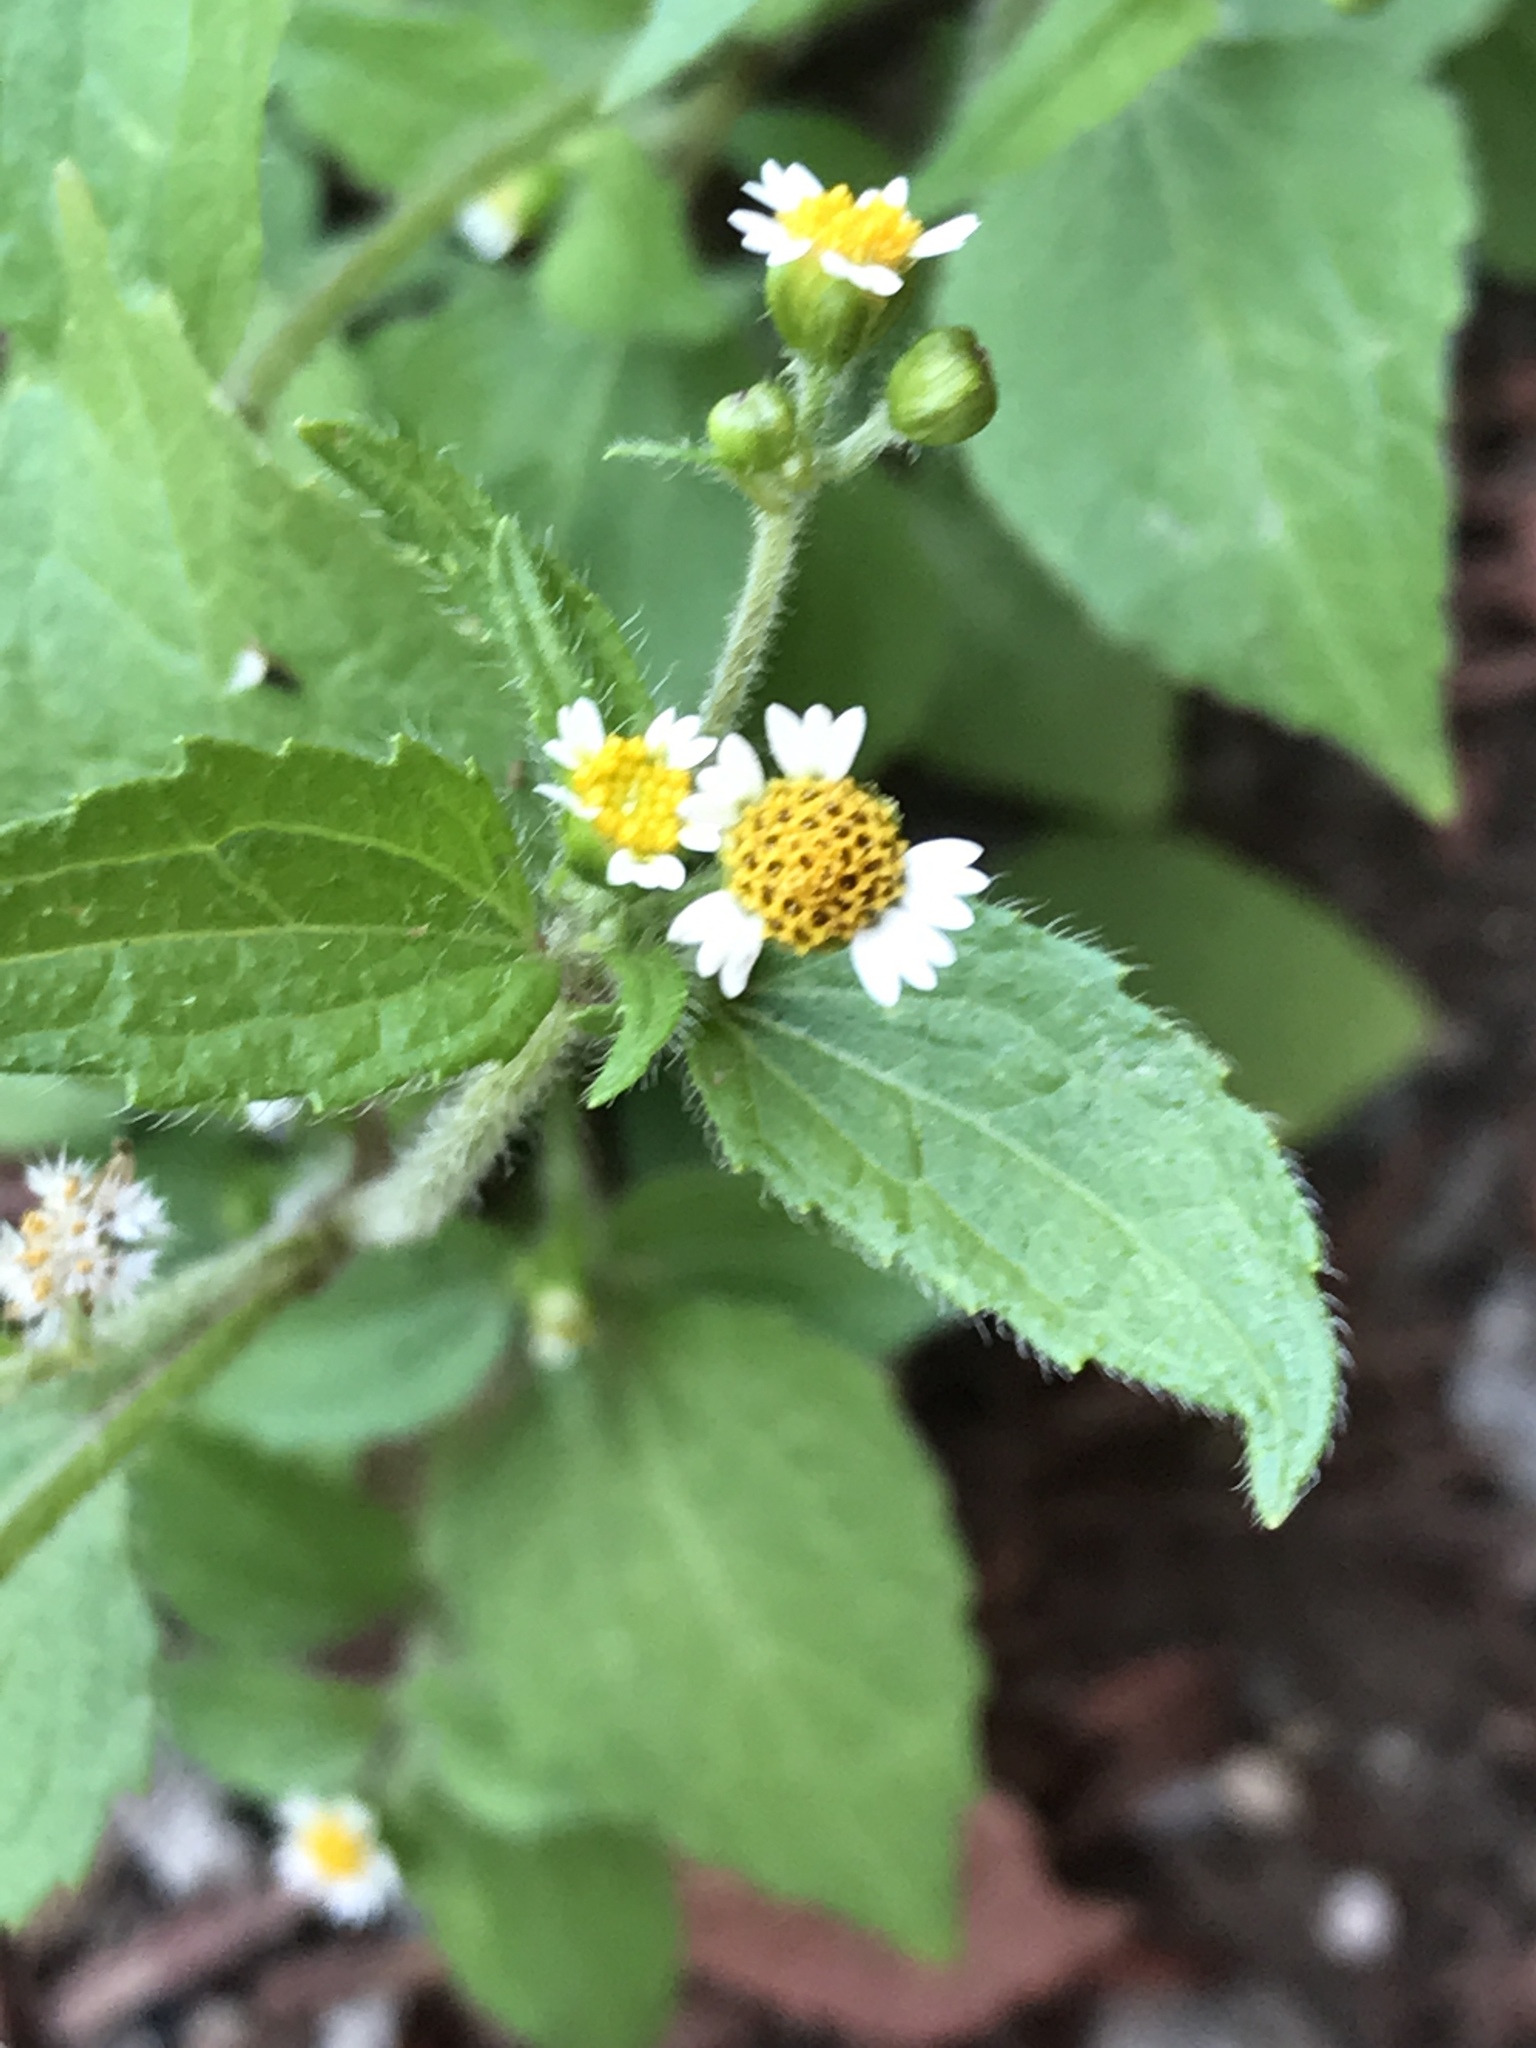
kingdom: Plantae
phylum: Tracheophyta
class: Magnoliopsida
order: Asterales
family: Asteraceae
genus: Galinsoga
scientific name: Galinsoga quadriradiata
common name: Shaggy soldier
